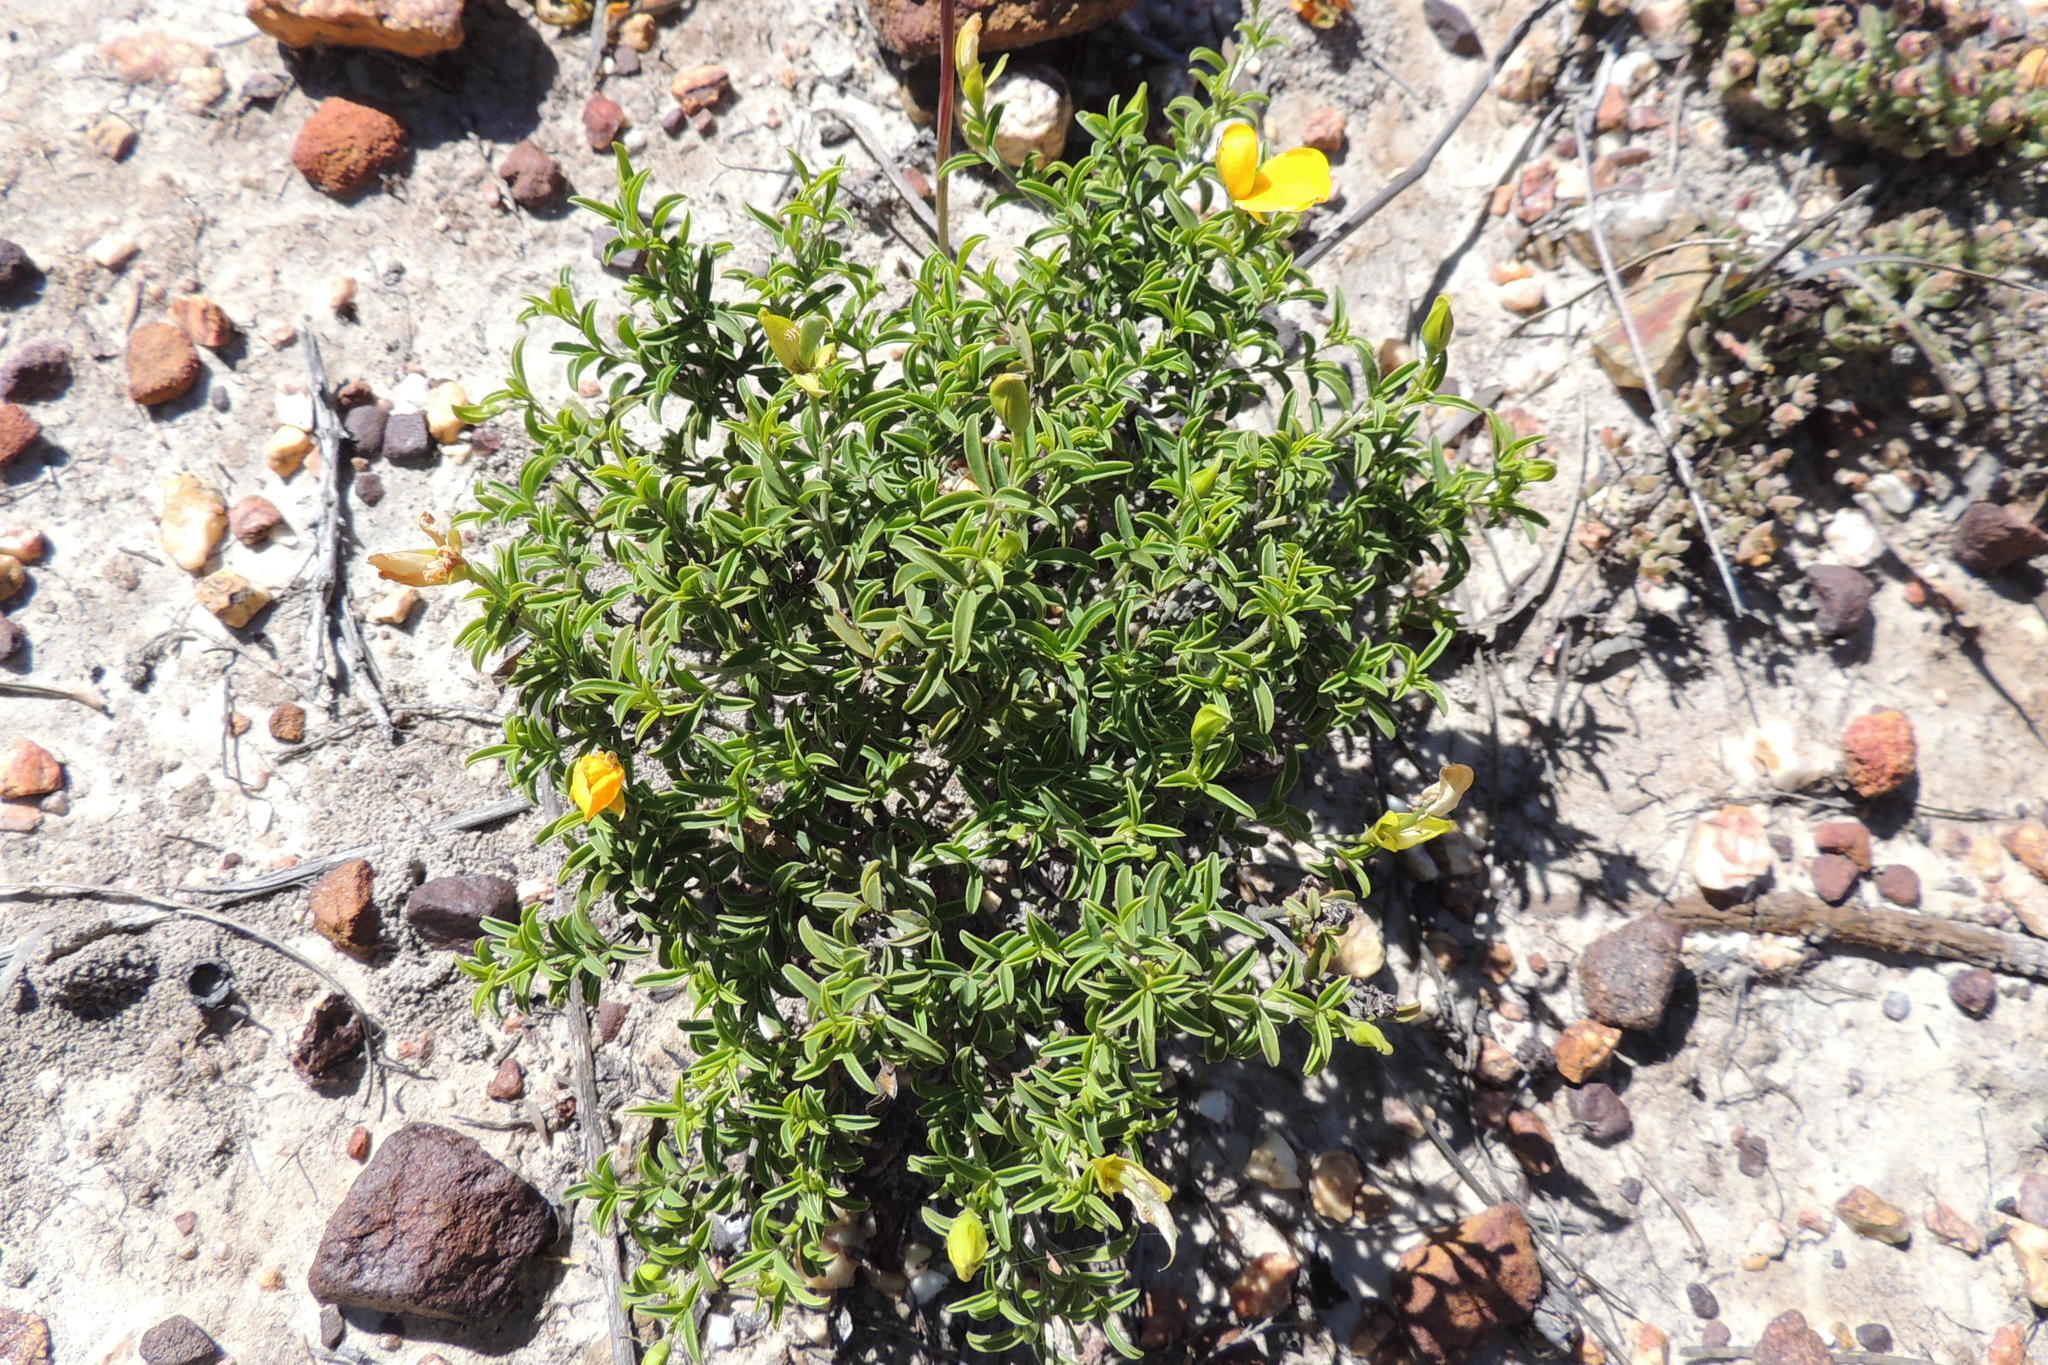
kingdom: Plantae
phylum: Tracheophyta
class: Magnoliopsida
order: Fabales
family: Fabaceae
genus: Argyrolobium
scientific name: Argyrolobium pachyphyllum
